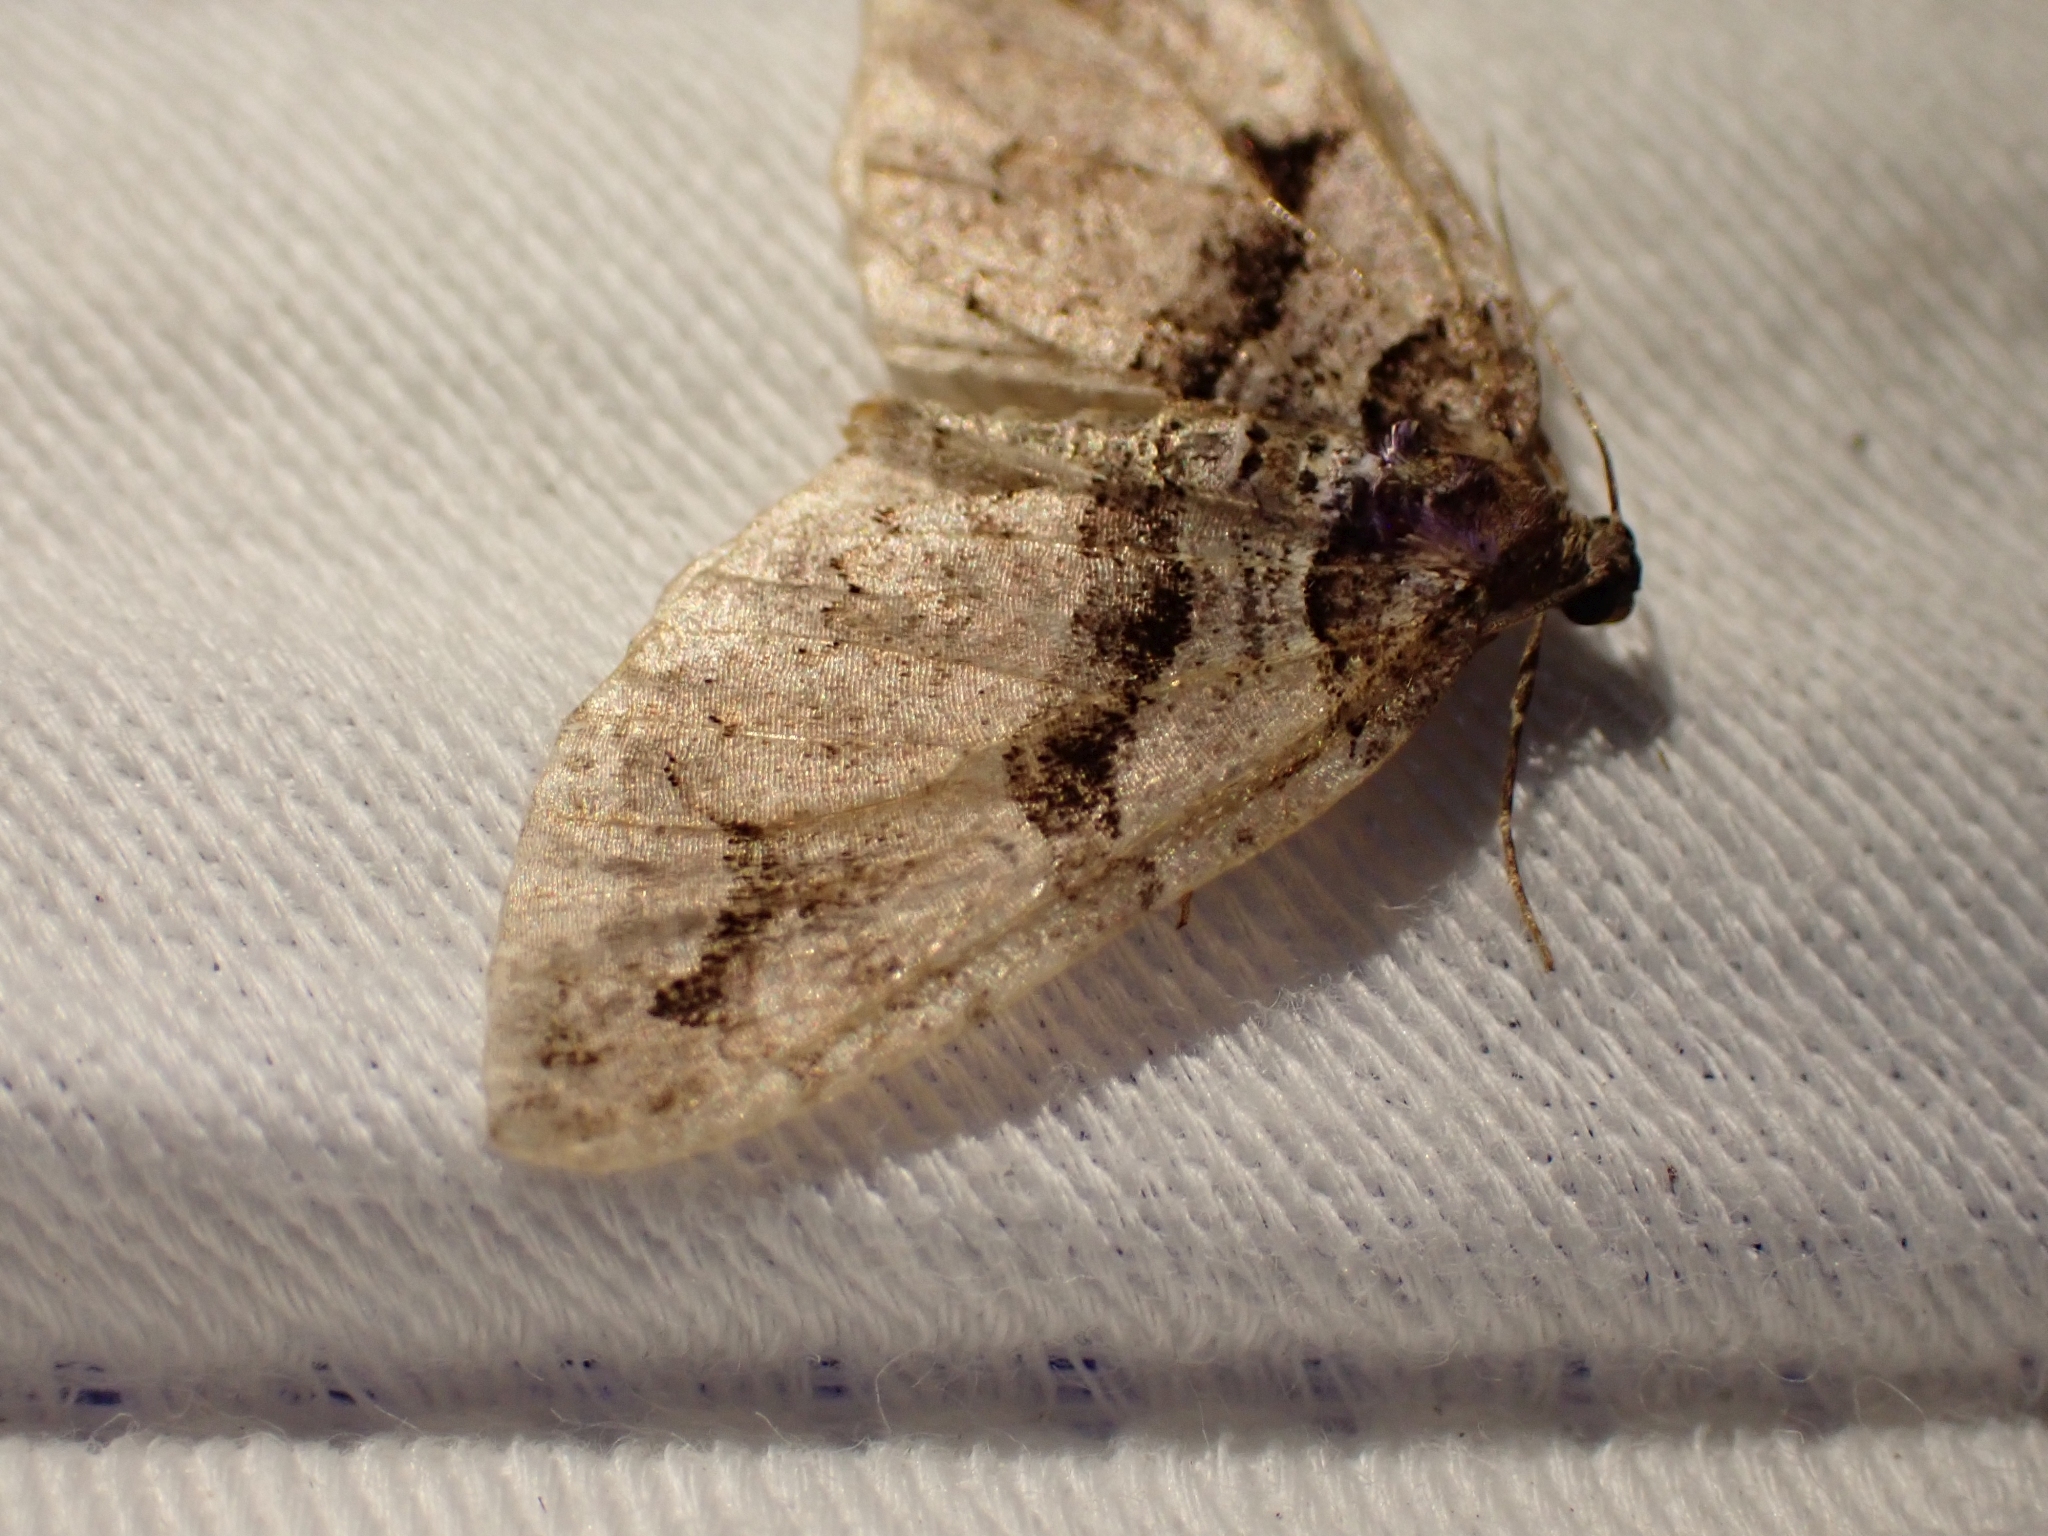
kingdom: Animalia
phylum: Arthropoda
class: Insecta
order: Lepidoptera
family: Geometridae
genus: Anticlea
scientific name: Anticlea vasiliata
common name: Variable carpet
